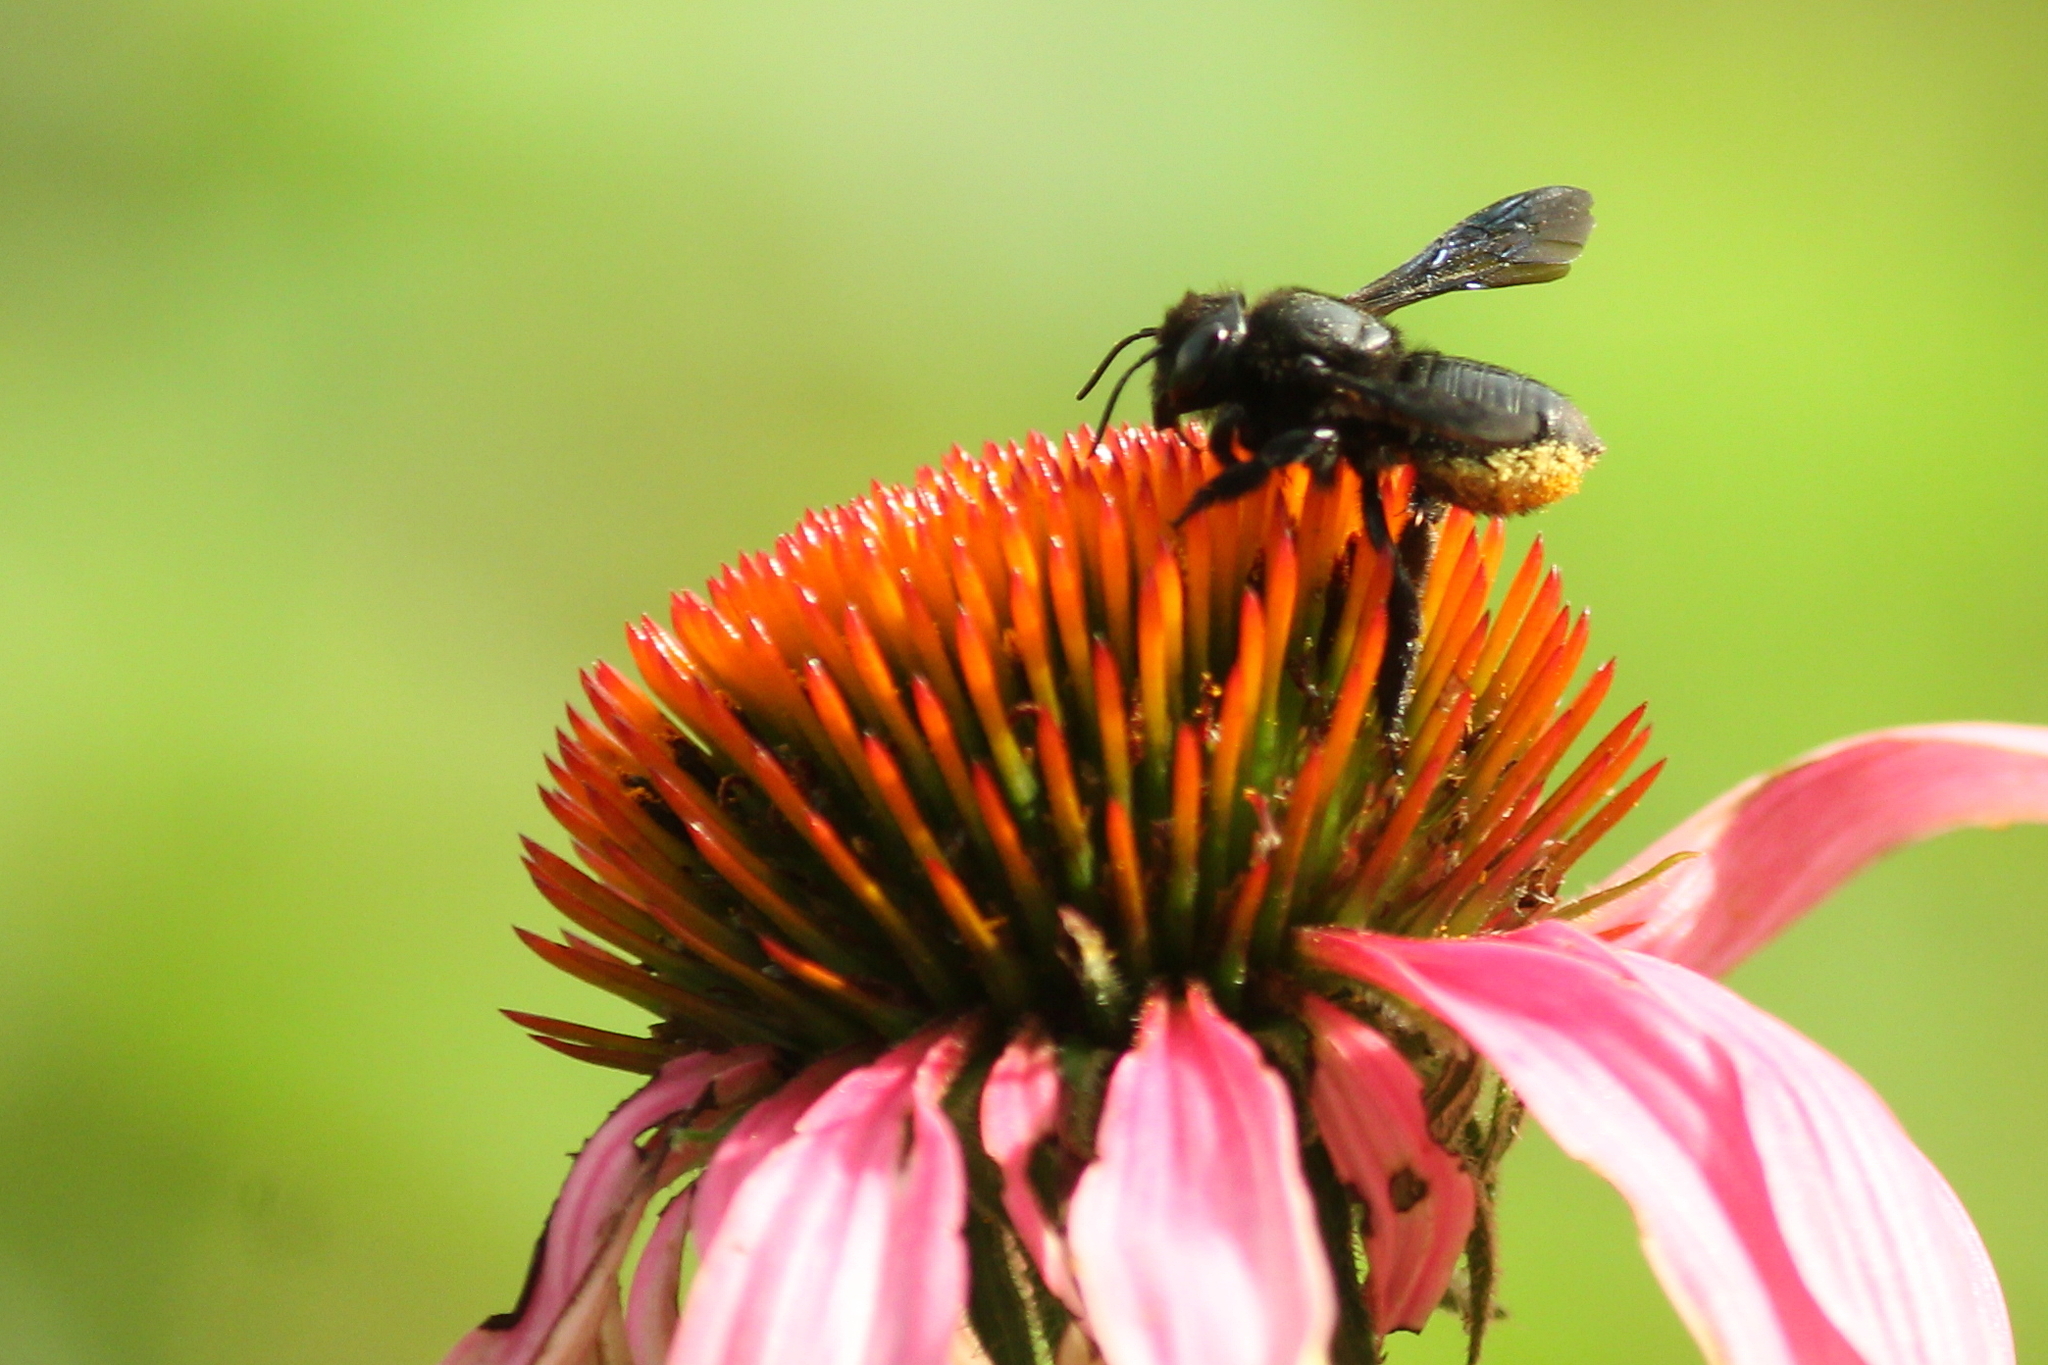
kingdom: Animalia
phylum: Arthropoda
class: Insecta
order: Hymenoptera
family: Megachilidae
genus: Megachile
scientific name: Megachile xylocopoides
